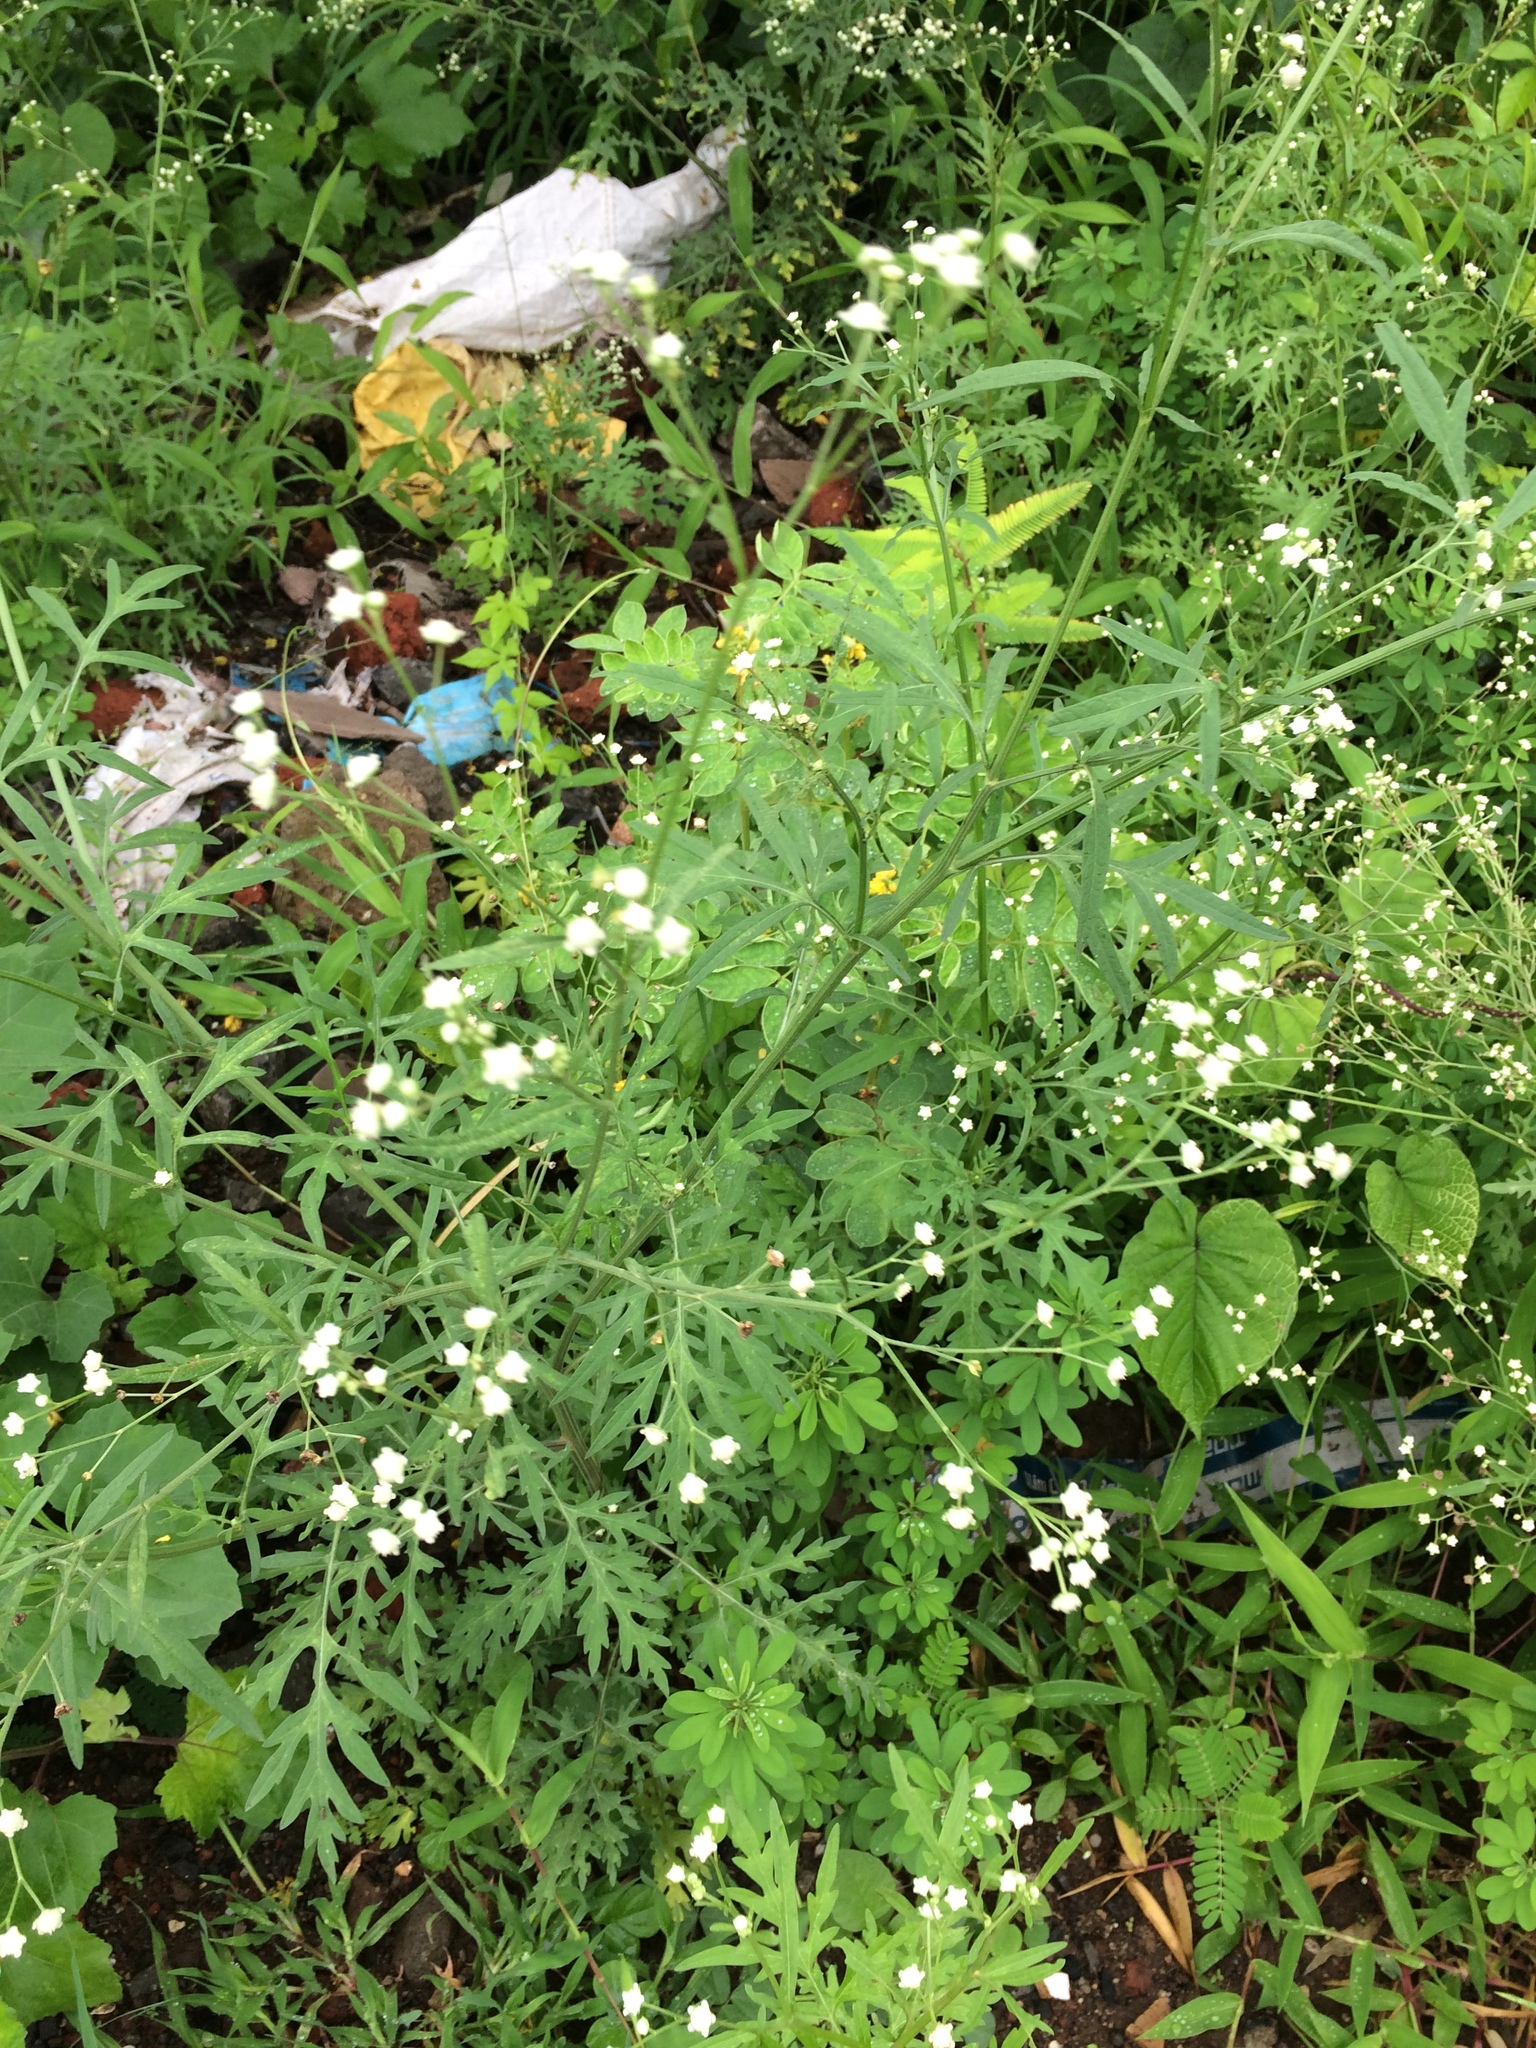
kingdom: Plantae
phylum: Tracheophyta
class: Magnoliopsida
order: Asterales
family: Asteraceae
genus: Parthenium
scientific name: Parthenium hysterophorus
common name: Santa maria feverfew
